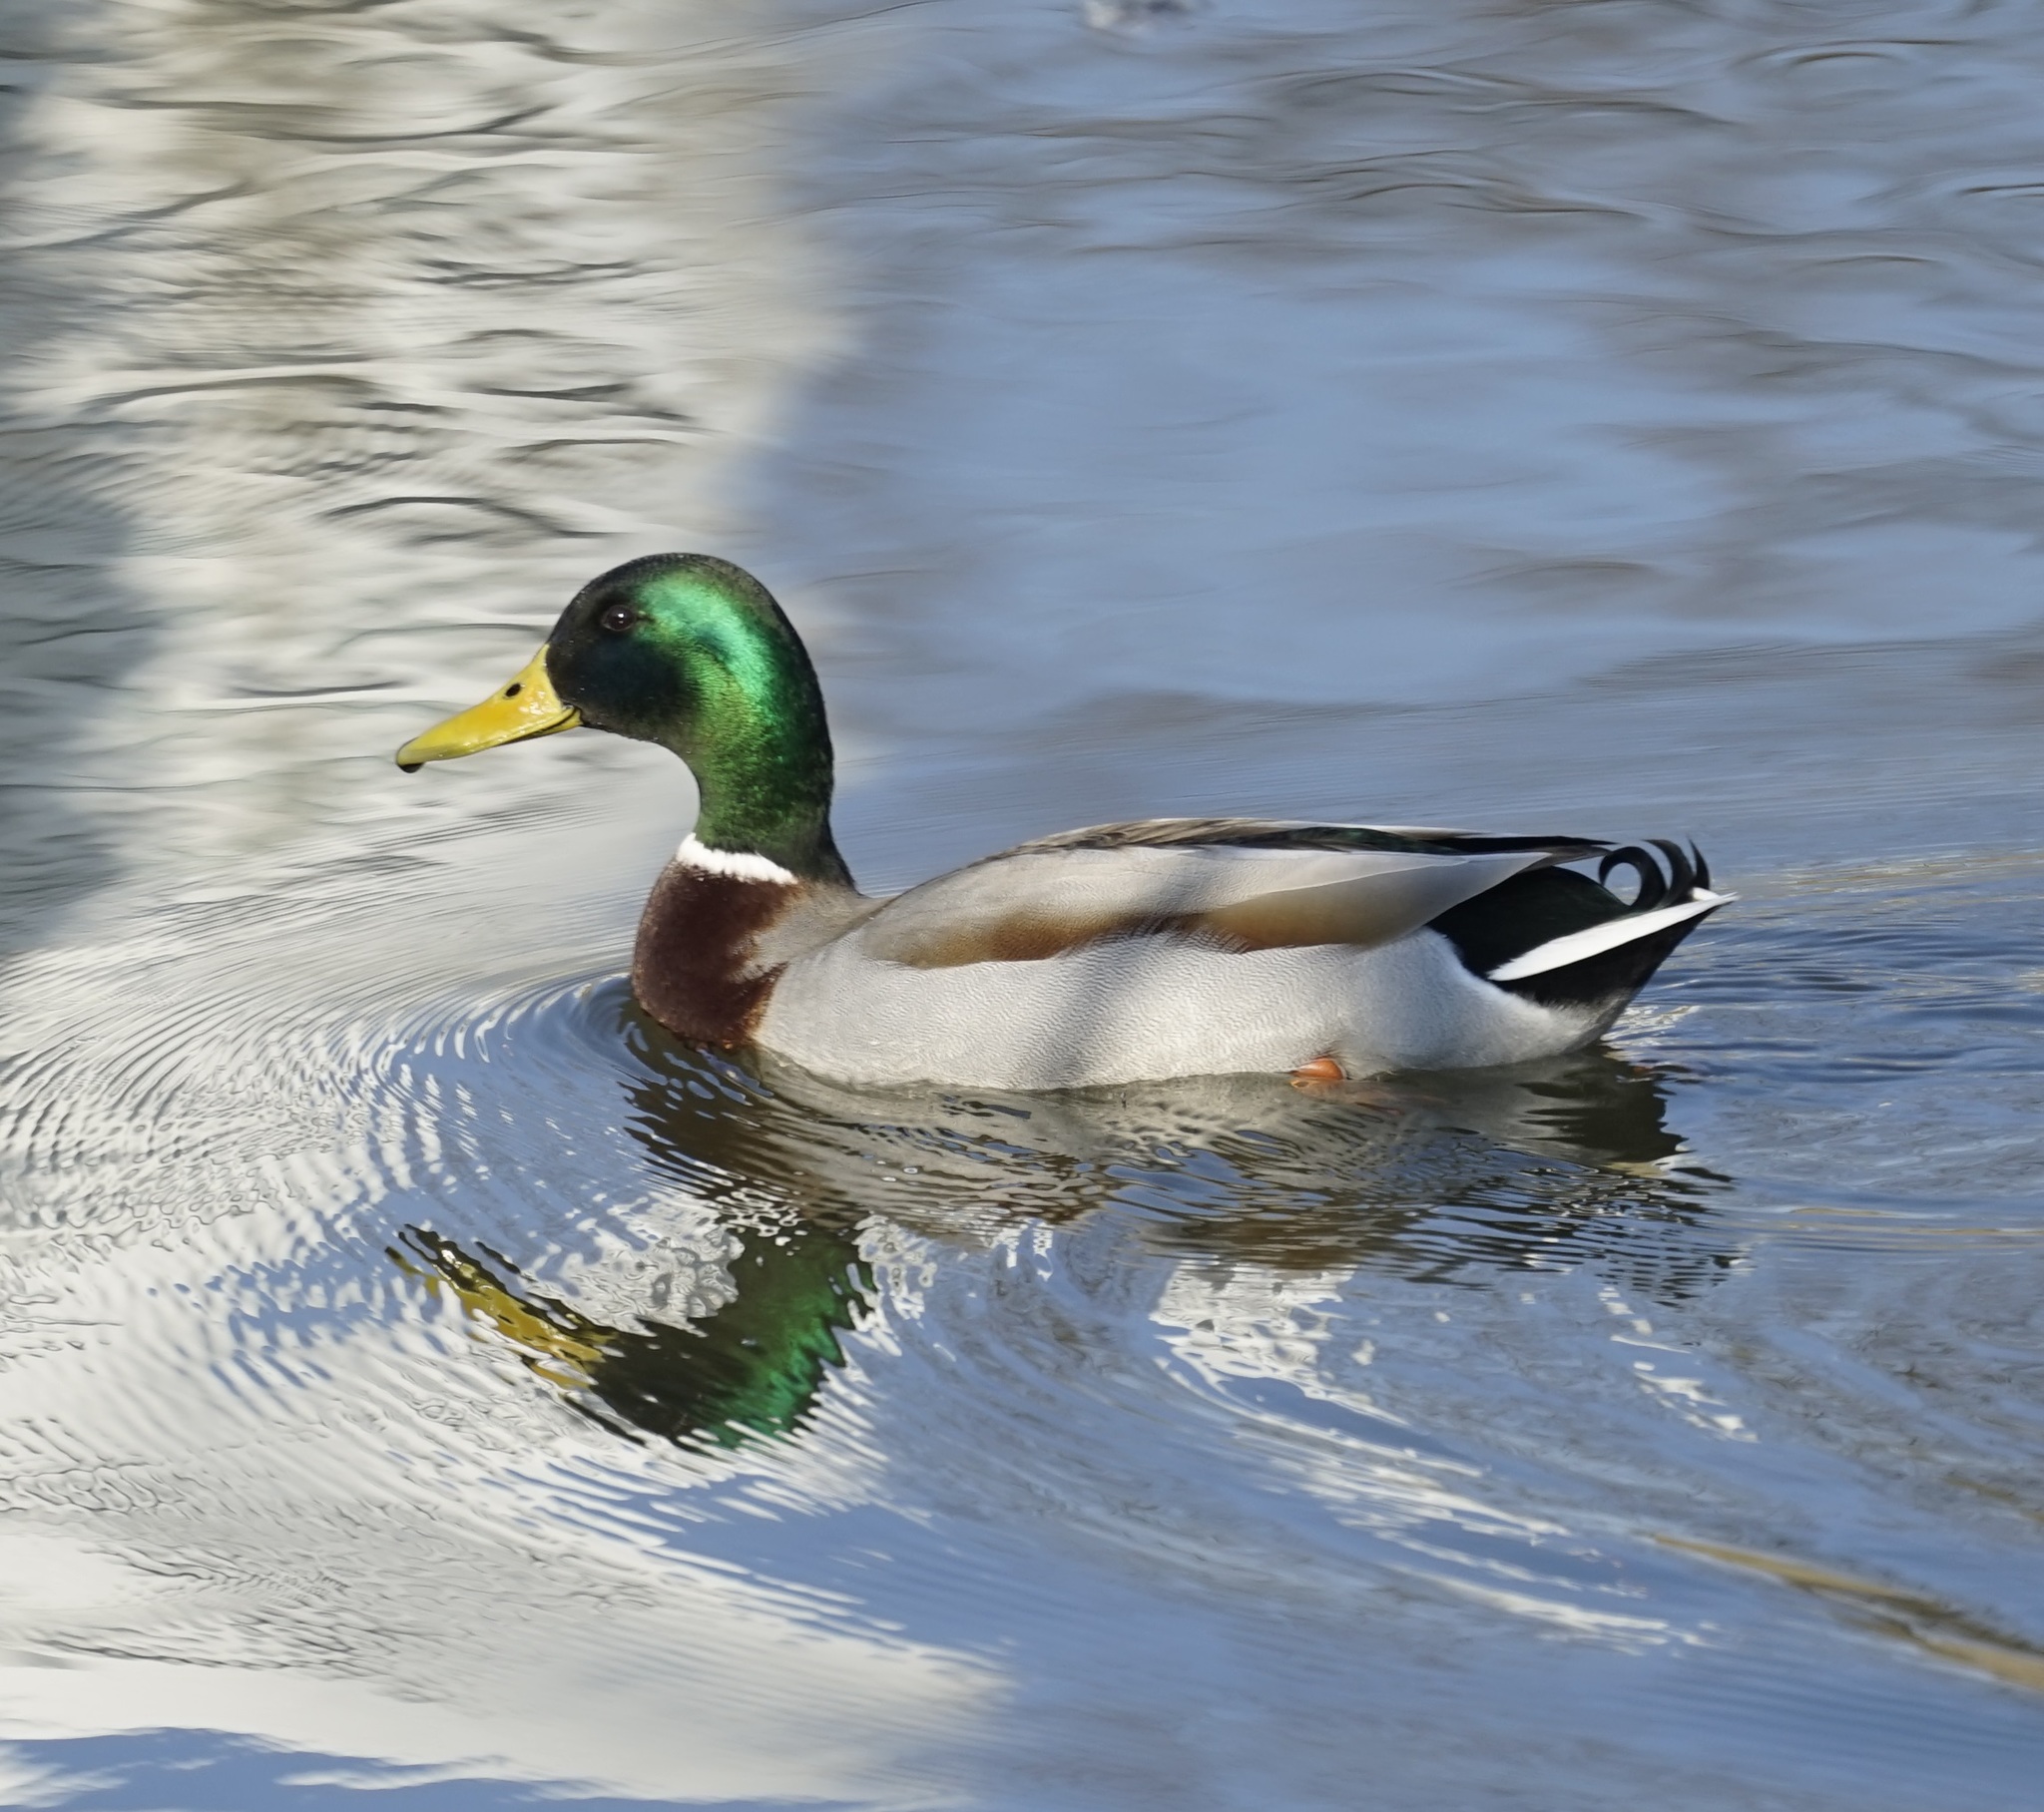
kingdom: Animalia
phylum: Chordata
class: Aves
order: Anseriformes
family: Anatidae
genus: Anas
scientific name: Anas platyrhynchos
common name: Mallard
